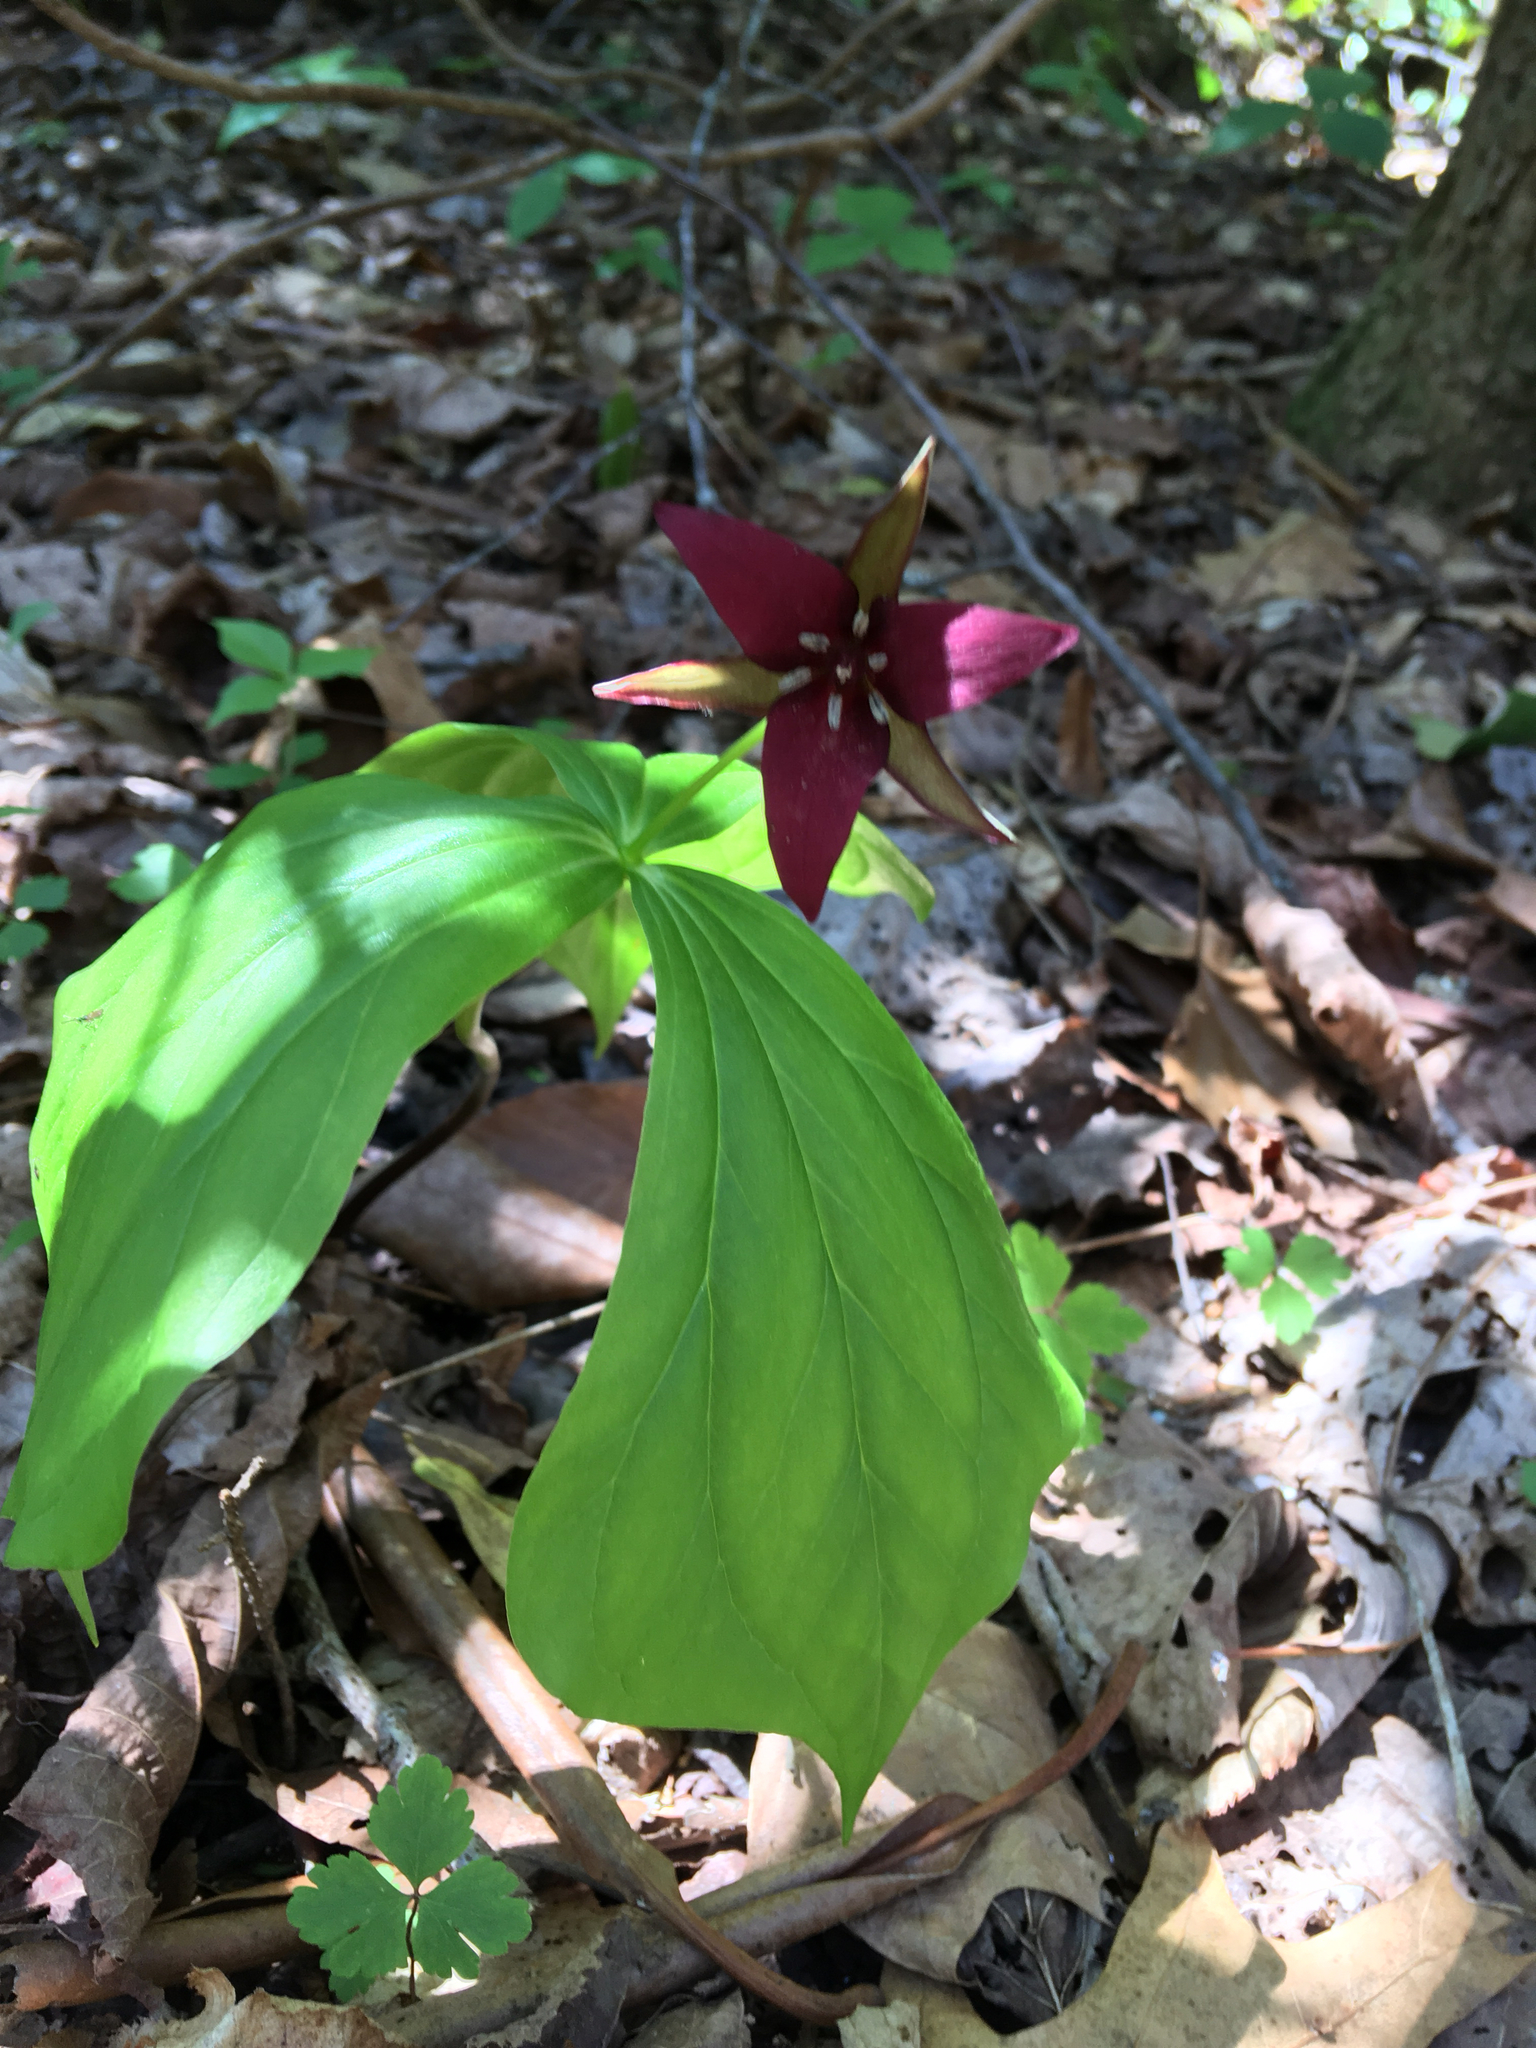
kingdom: Plantae
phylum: Tracheophyta
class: Liliopsida
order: Liliales
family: Melanthiaceae
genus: Trillium
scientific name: Trillium erectum
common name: Purple trillium
